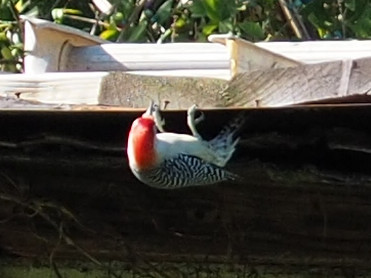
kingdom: Animalia
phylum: Chordata
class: Aves
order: Piciformes
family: Picidae
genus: Melanerpes
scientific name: Melanerpes carolinus
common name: Red-bellied woodpecker
